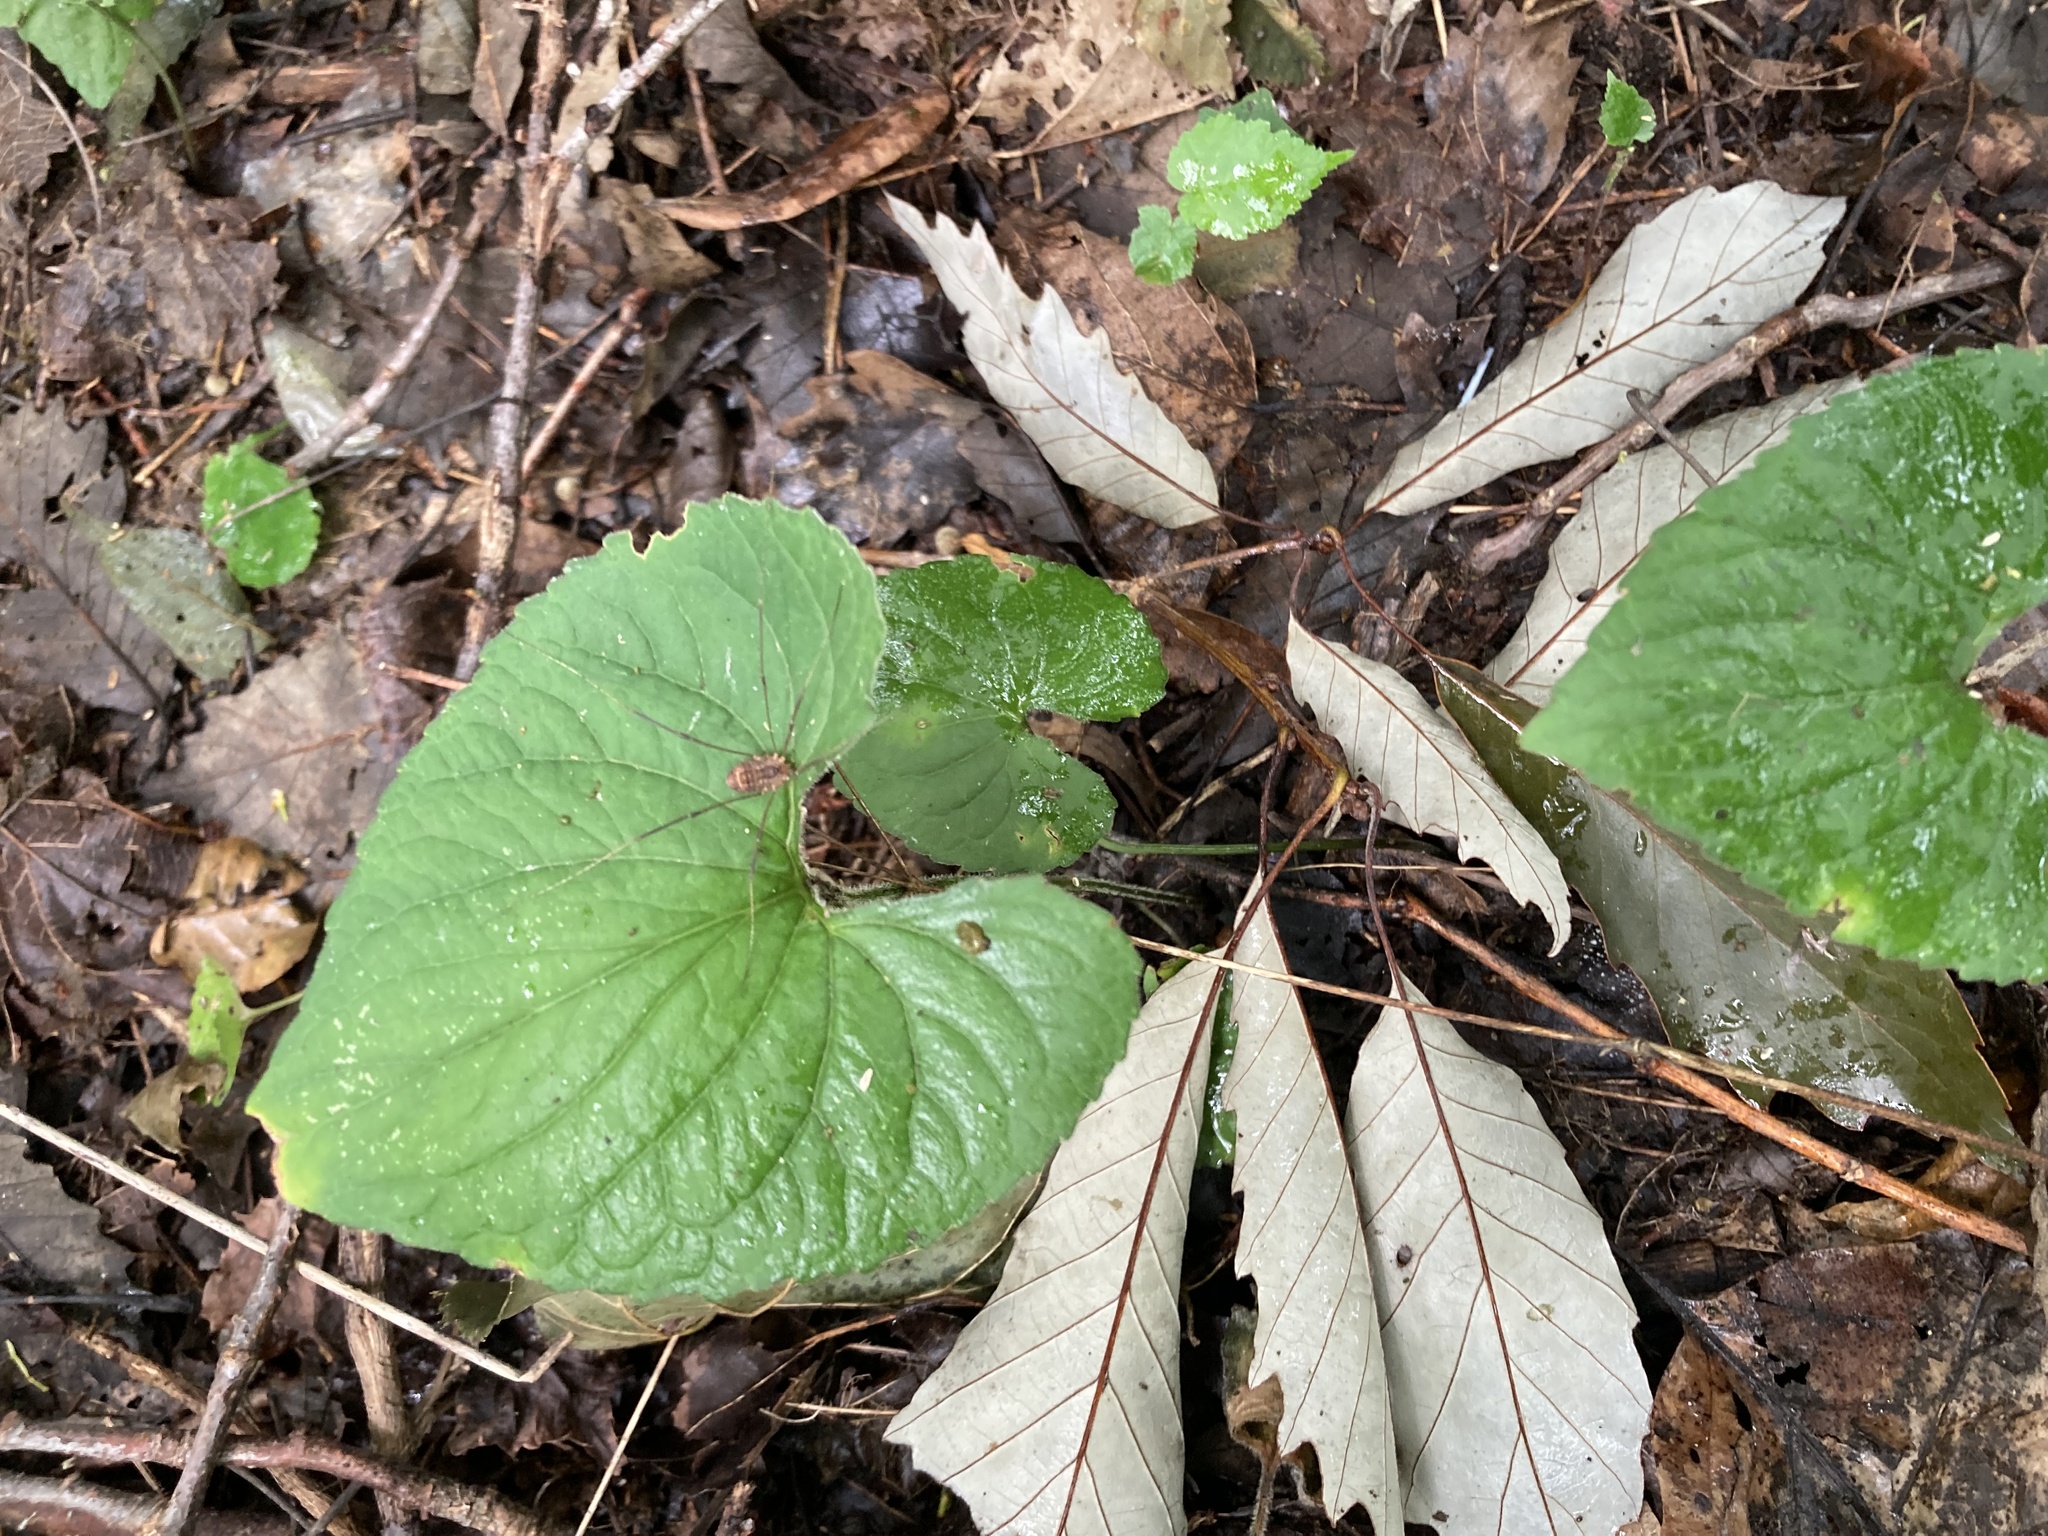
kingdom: Plantae
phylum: Tracheophyta
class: Magnoliopsida
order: Malpighiales
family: Violaceae
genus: Viola
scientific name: Viola sororia
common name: Dooryard violet
